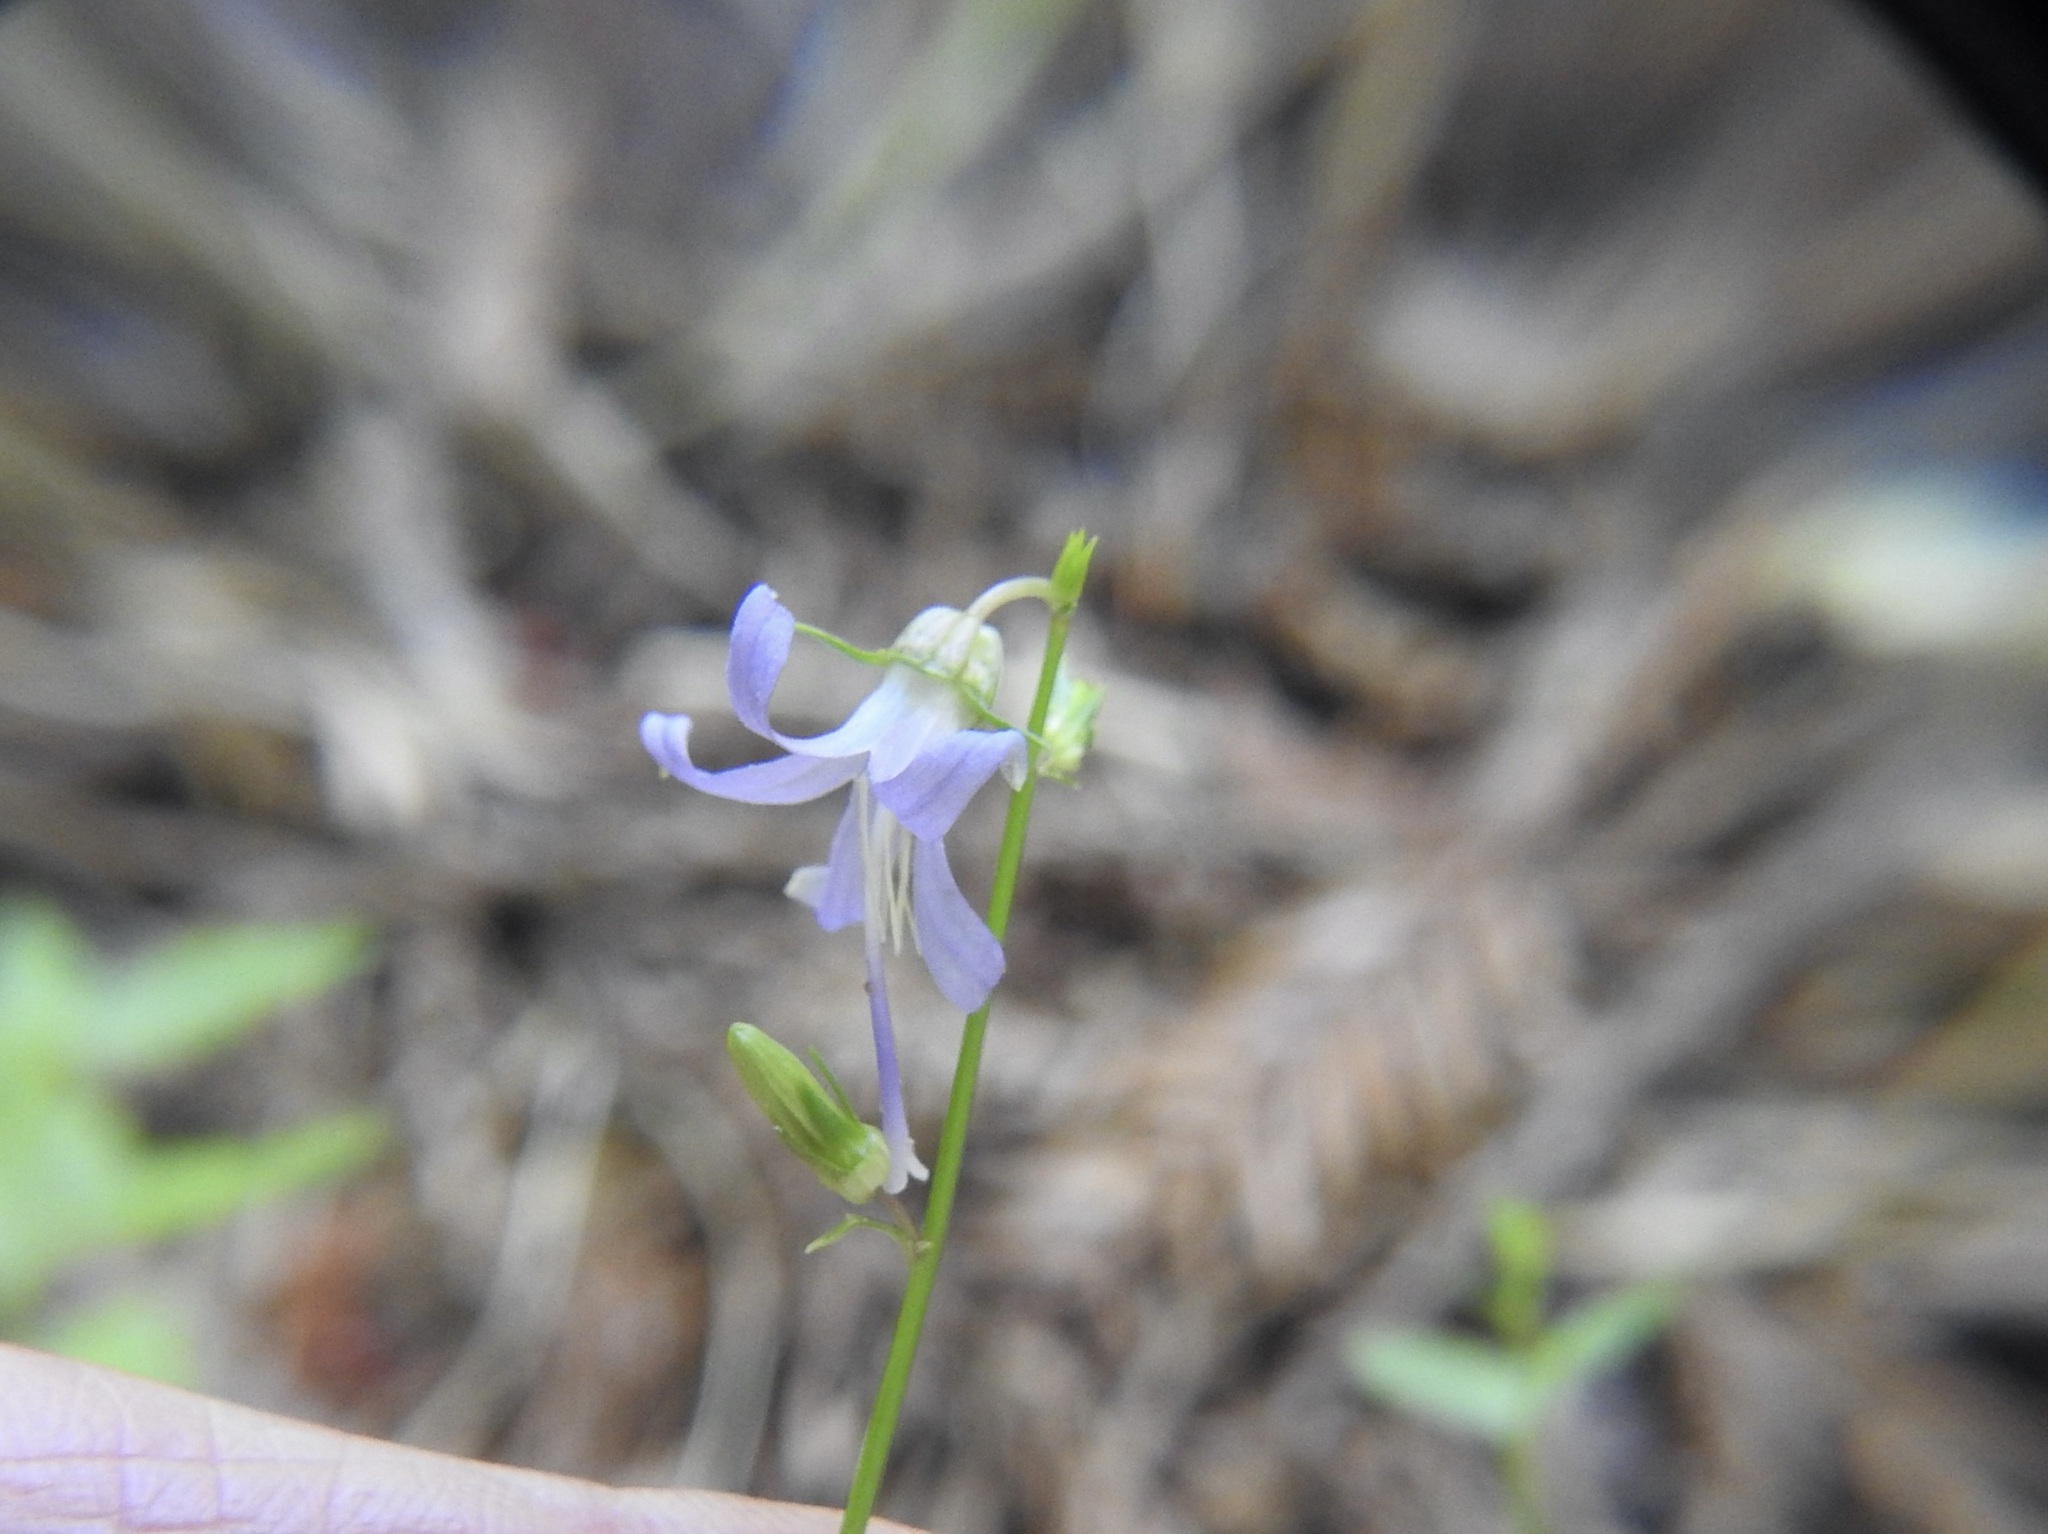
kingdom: Plantae
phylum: Tracheophyta
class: Magnoliopsida
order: Asterales
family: Campanulaceae
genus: Smithiastrum
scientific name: Smithiastrum prenanthoides
